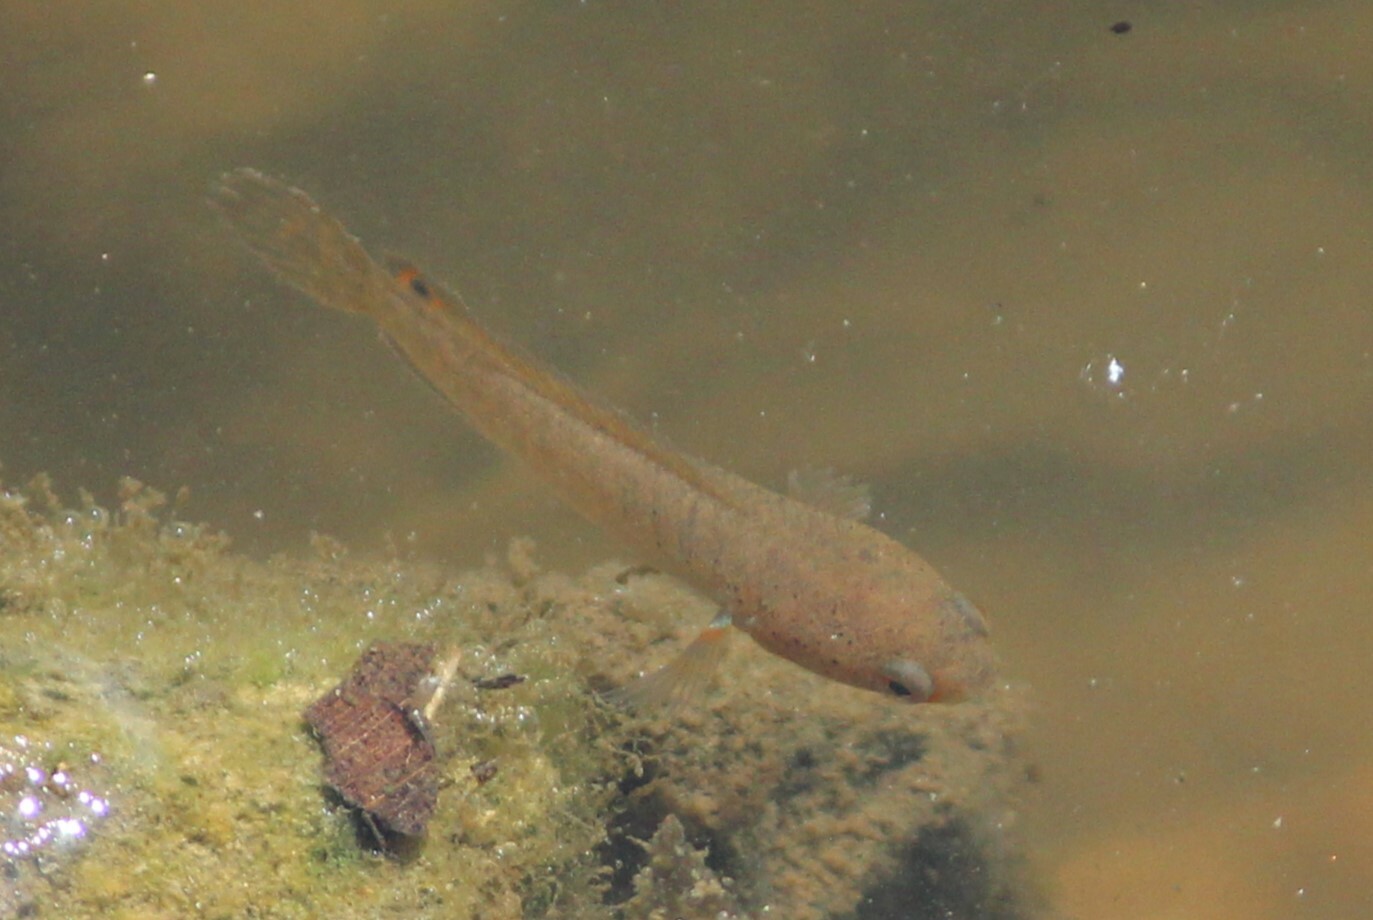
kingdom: Animalia
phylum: Chordata
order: Perciformes
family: Channidae
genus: Channa
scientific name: Channa gachua
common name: Dwarf snakehead
